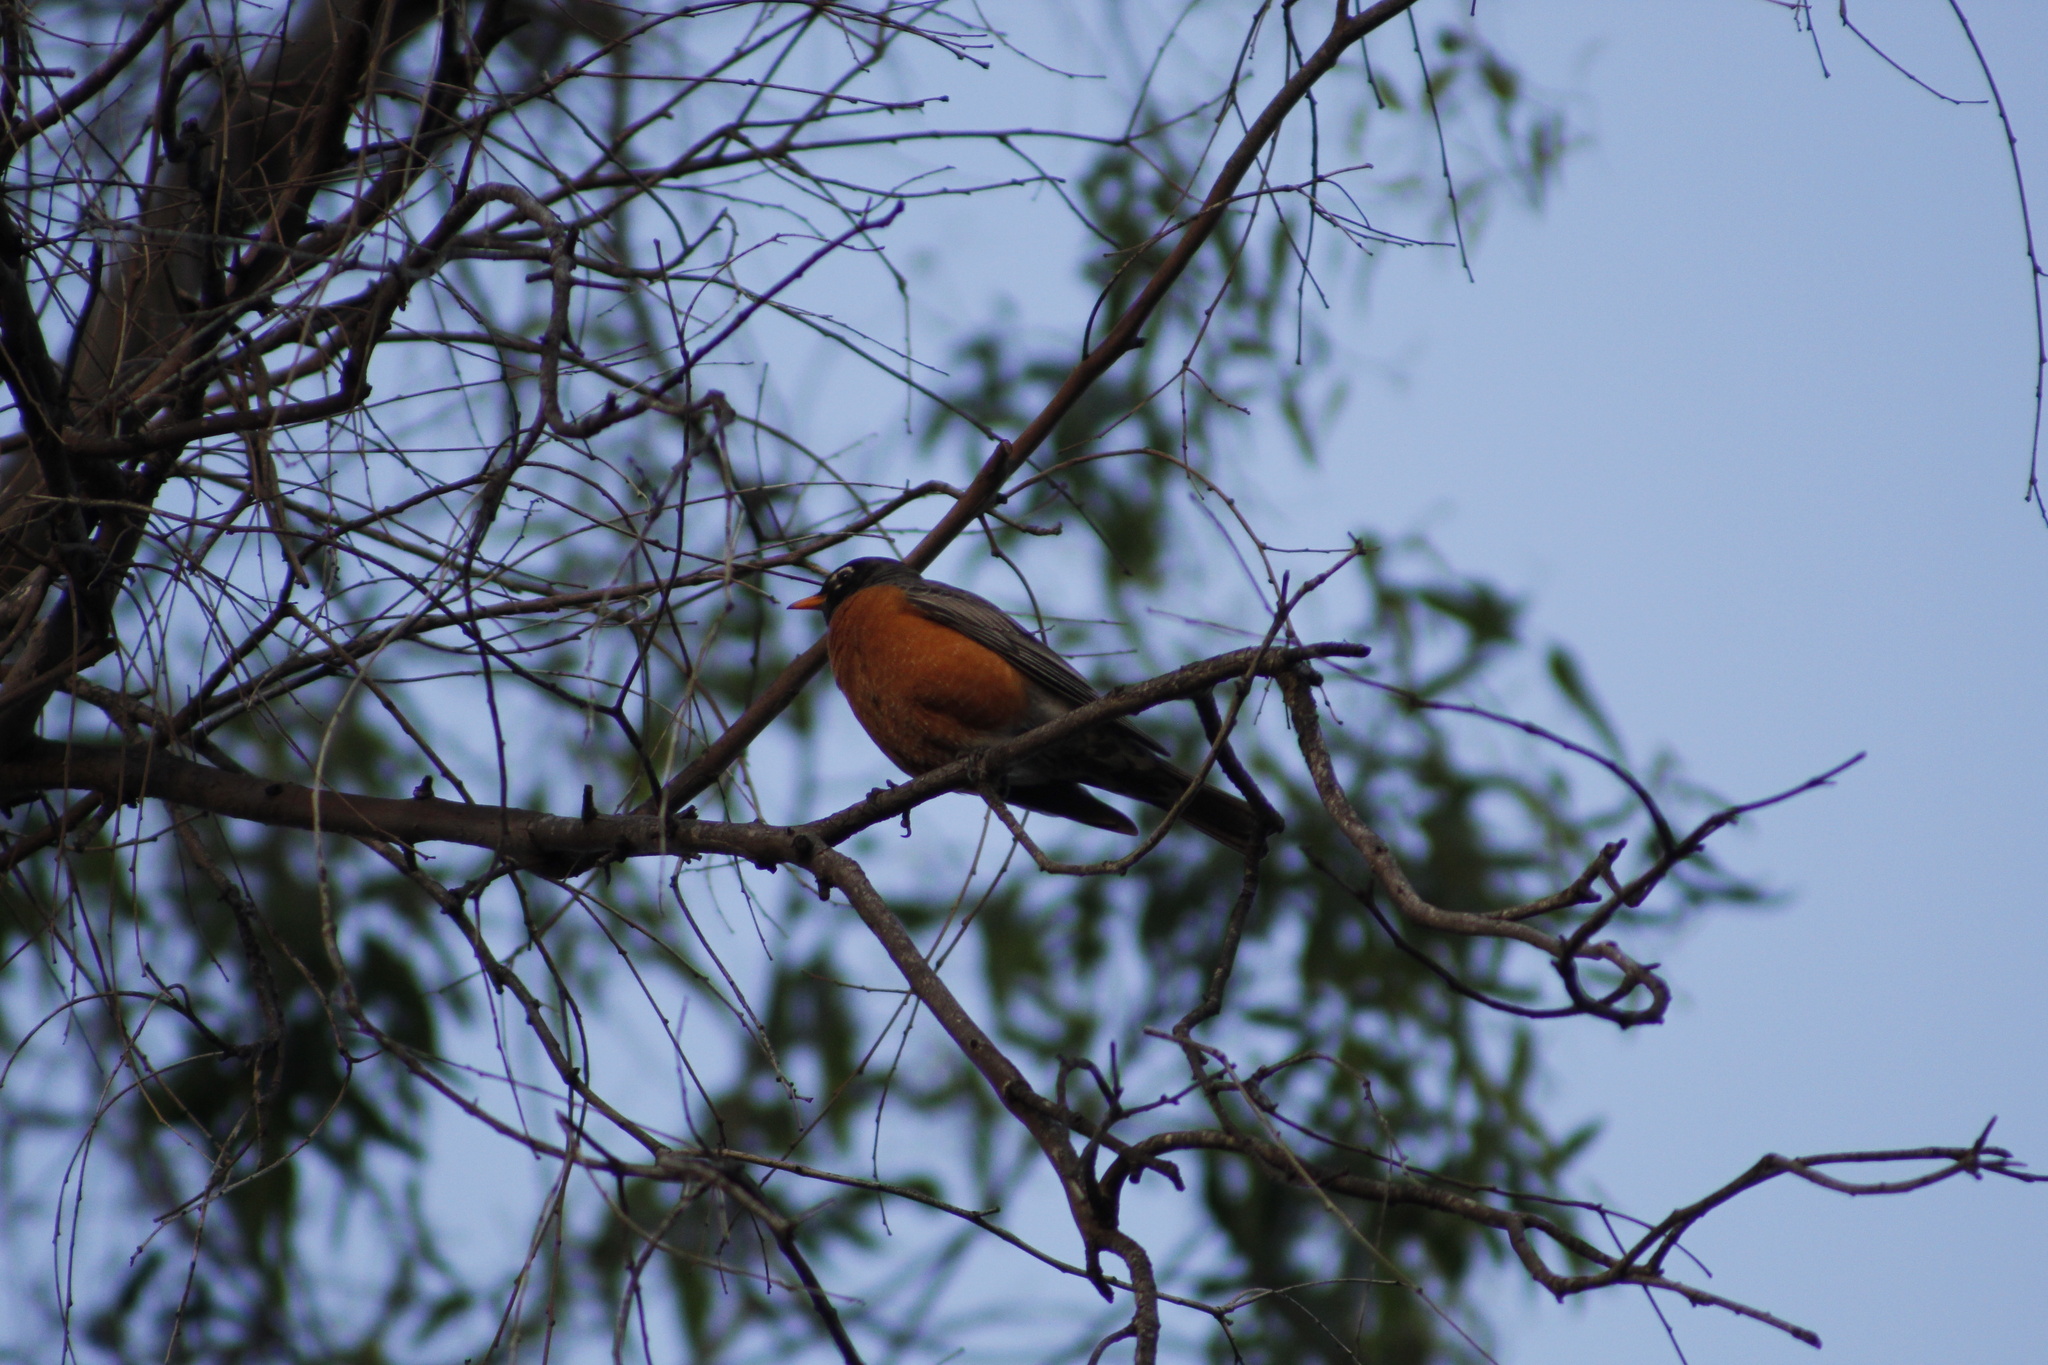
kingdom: Animalia
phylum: Chordata
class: Aves
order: Passeriformes
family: Turdidae
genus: Turdus
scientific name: Turdus migratorius
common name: American robin
